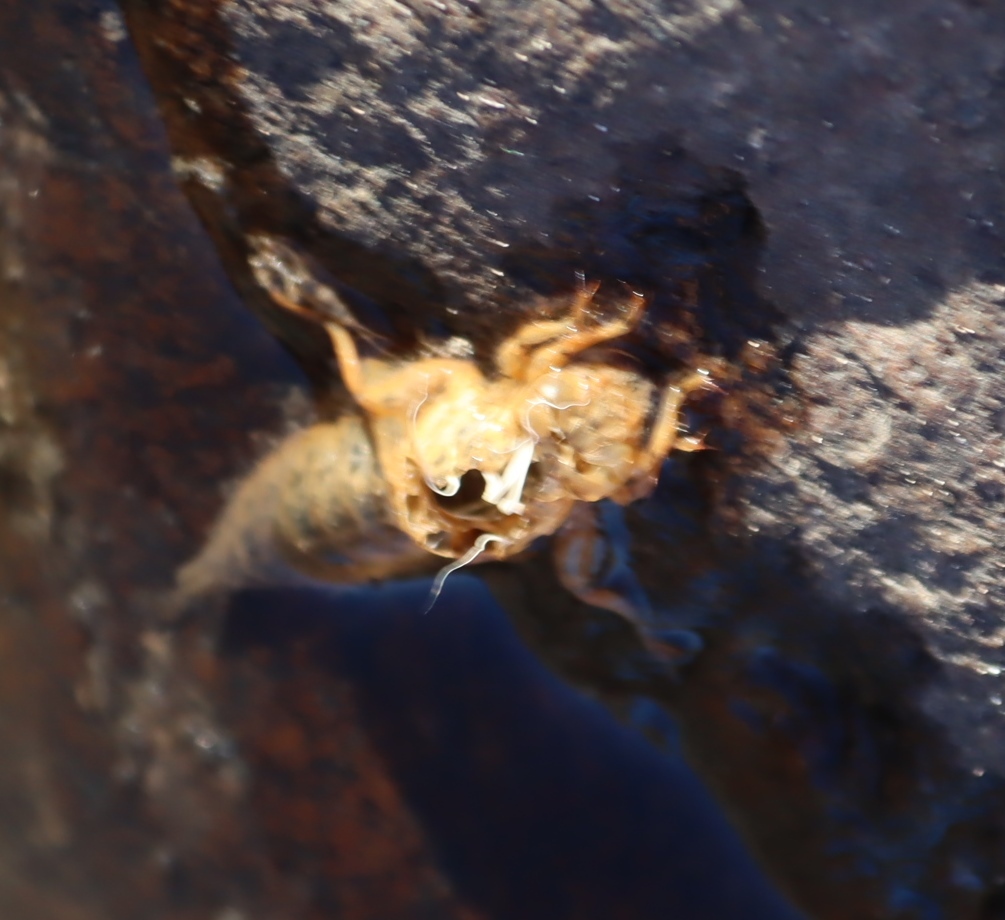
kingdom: Animalia
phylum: Arthropoda
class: Insecta
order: Odonata
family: Gomphidae
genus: Paragomphus
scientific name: Paragomphus genei
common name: Common hooktail
